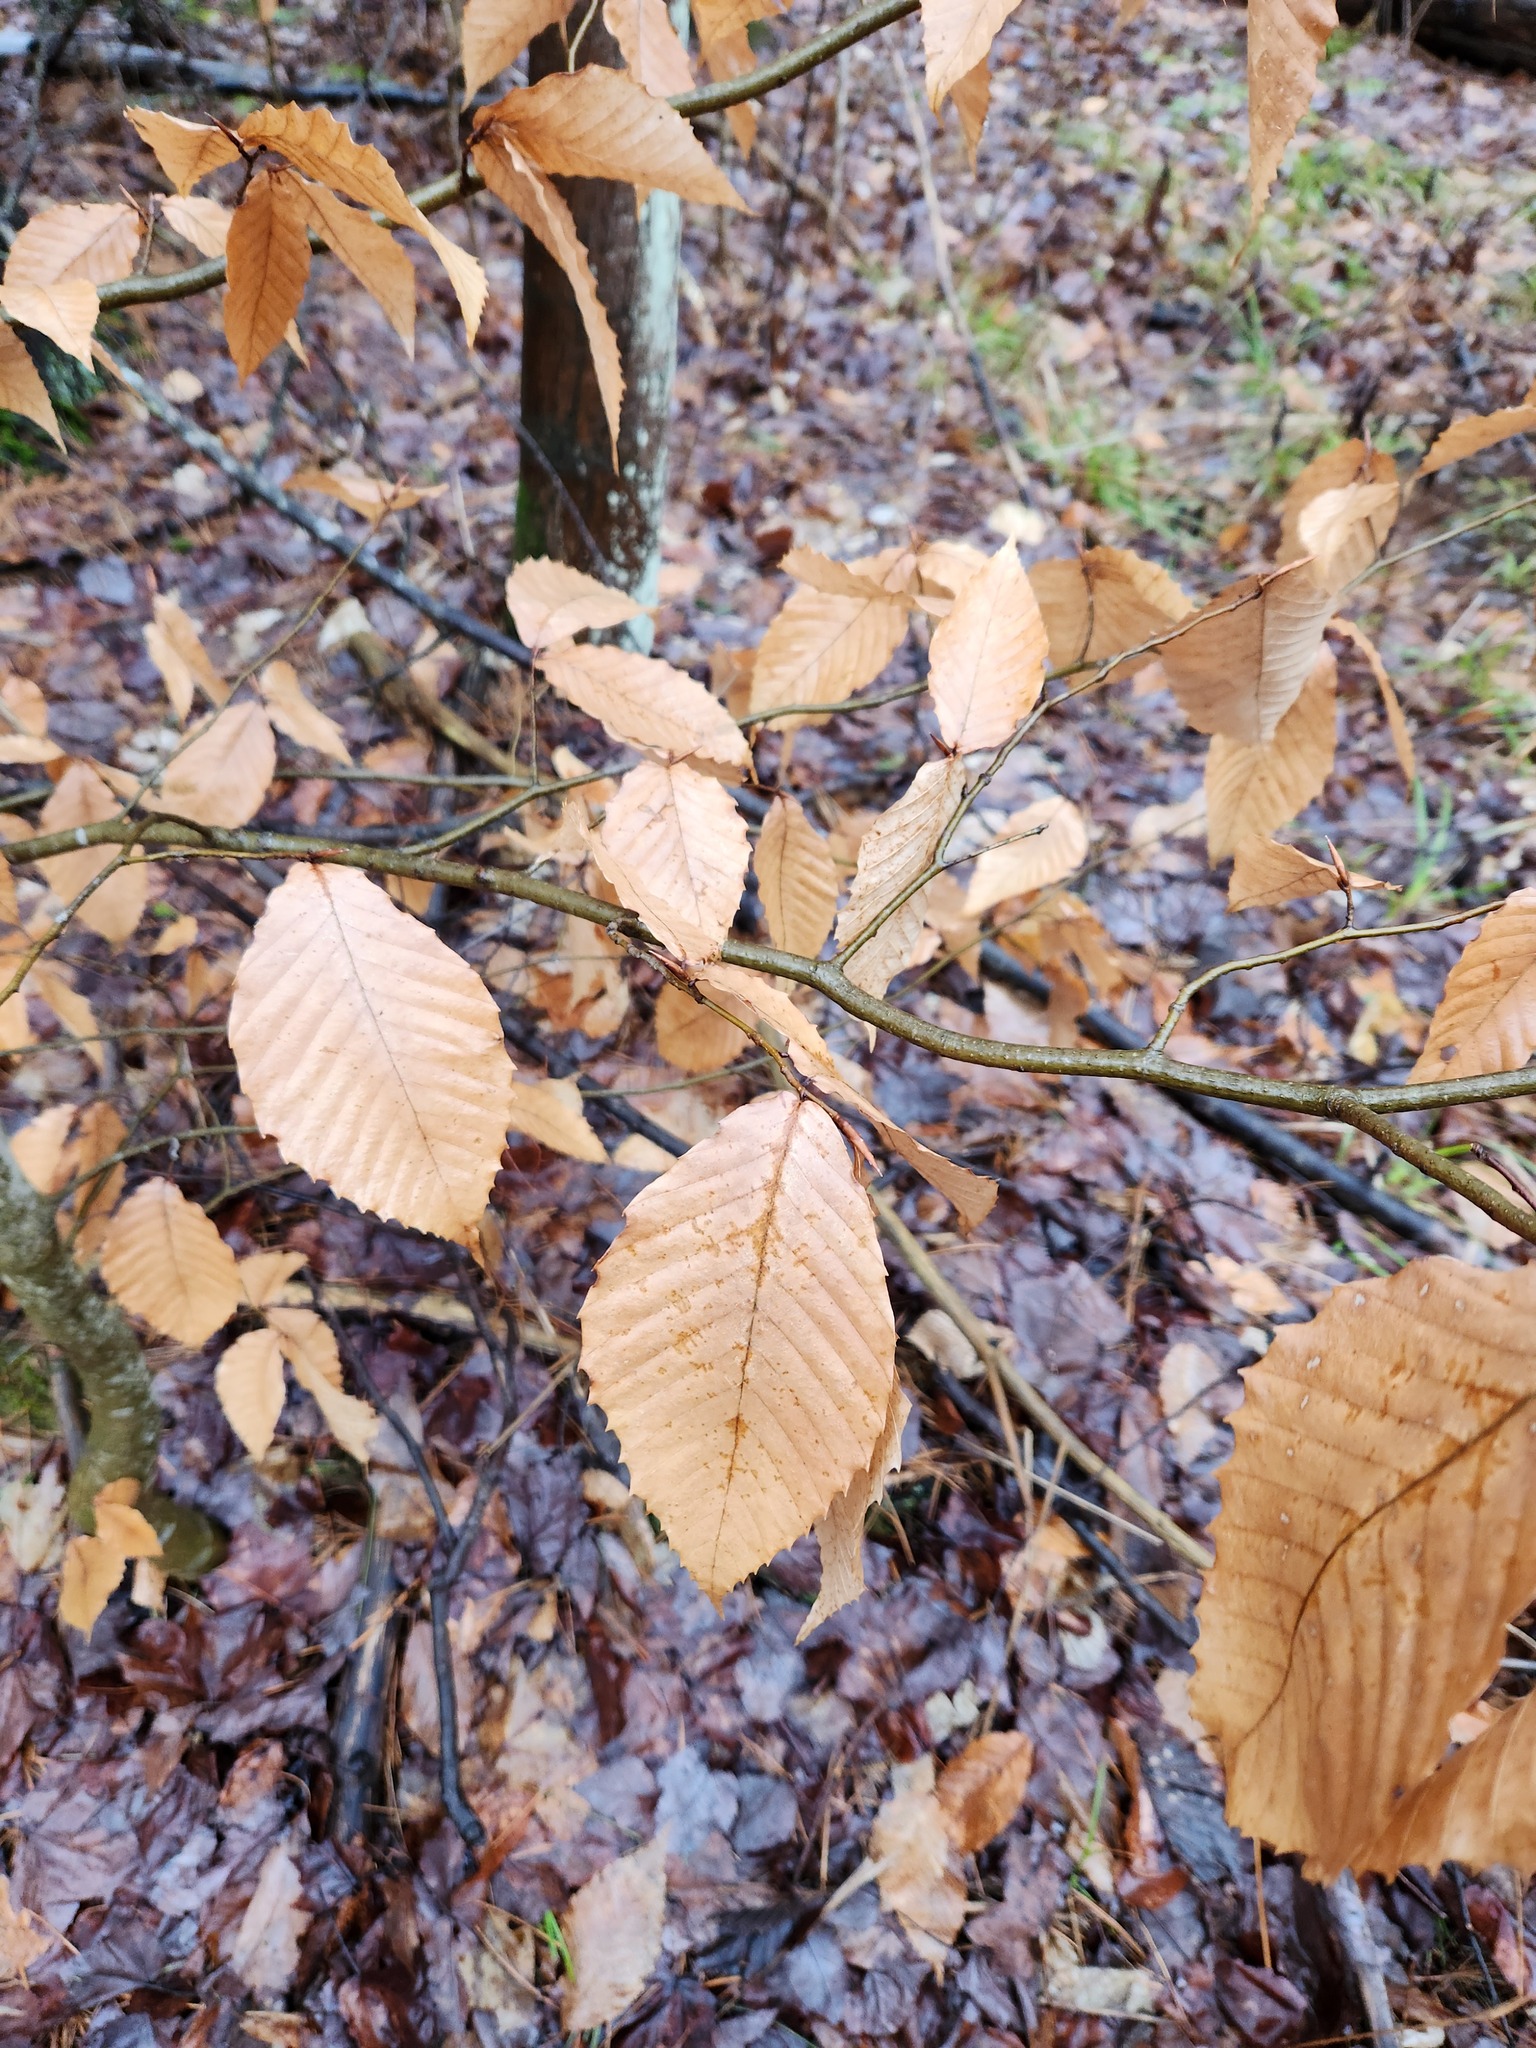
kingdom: Plantae
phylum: Tracheophyta
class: Magnoliopsida
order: Fagales
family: Fagaceae
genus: Fagus
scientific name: Fagus grandifolia
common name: American beech
